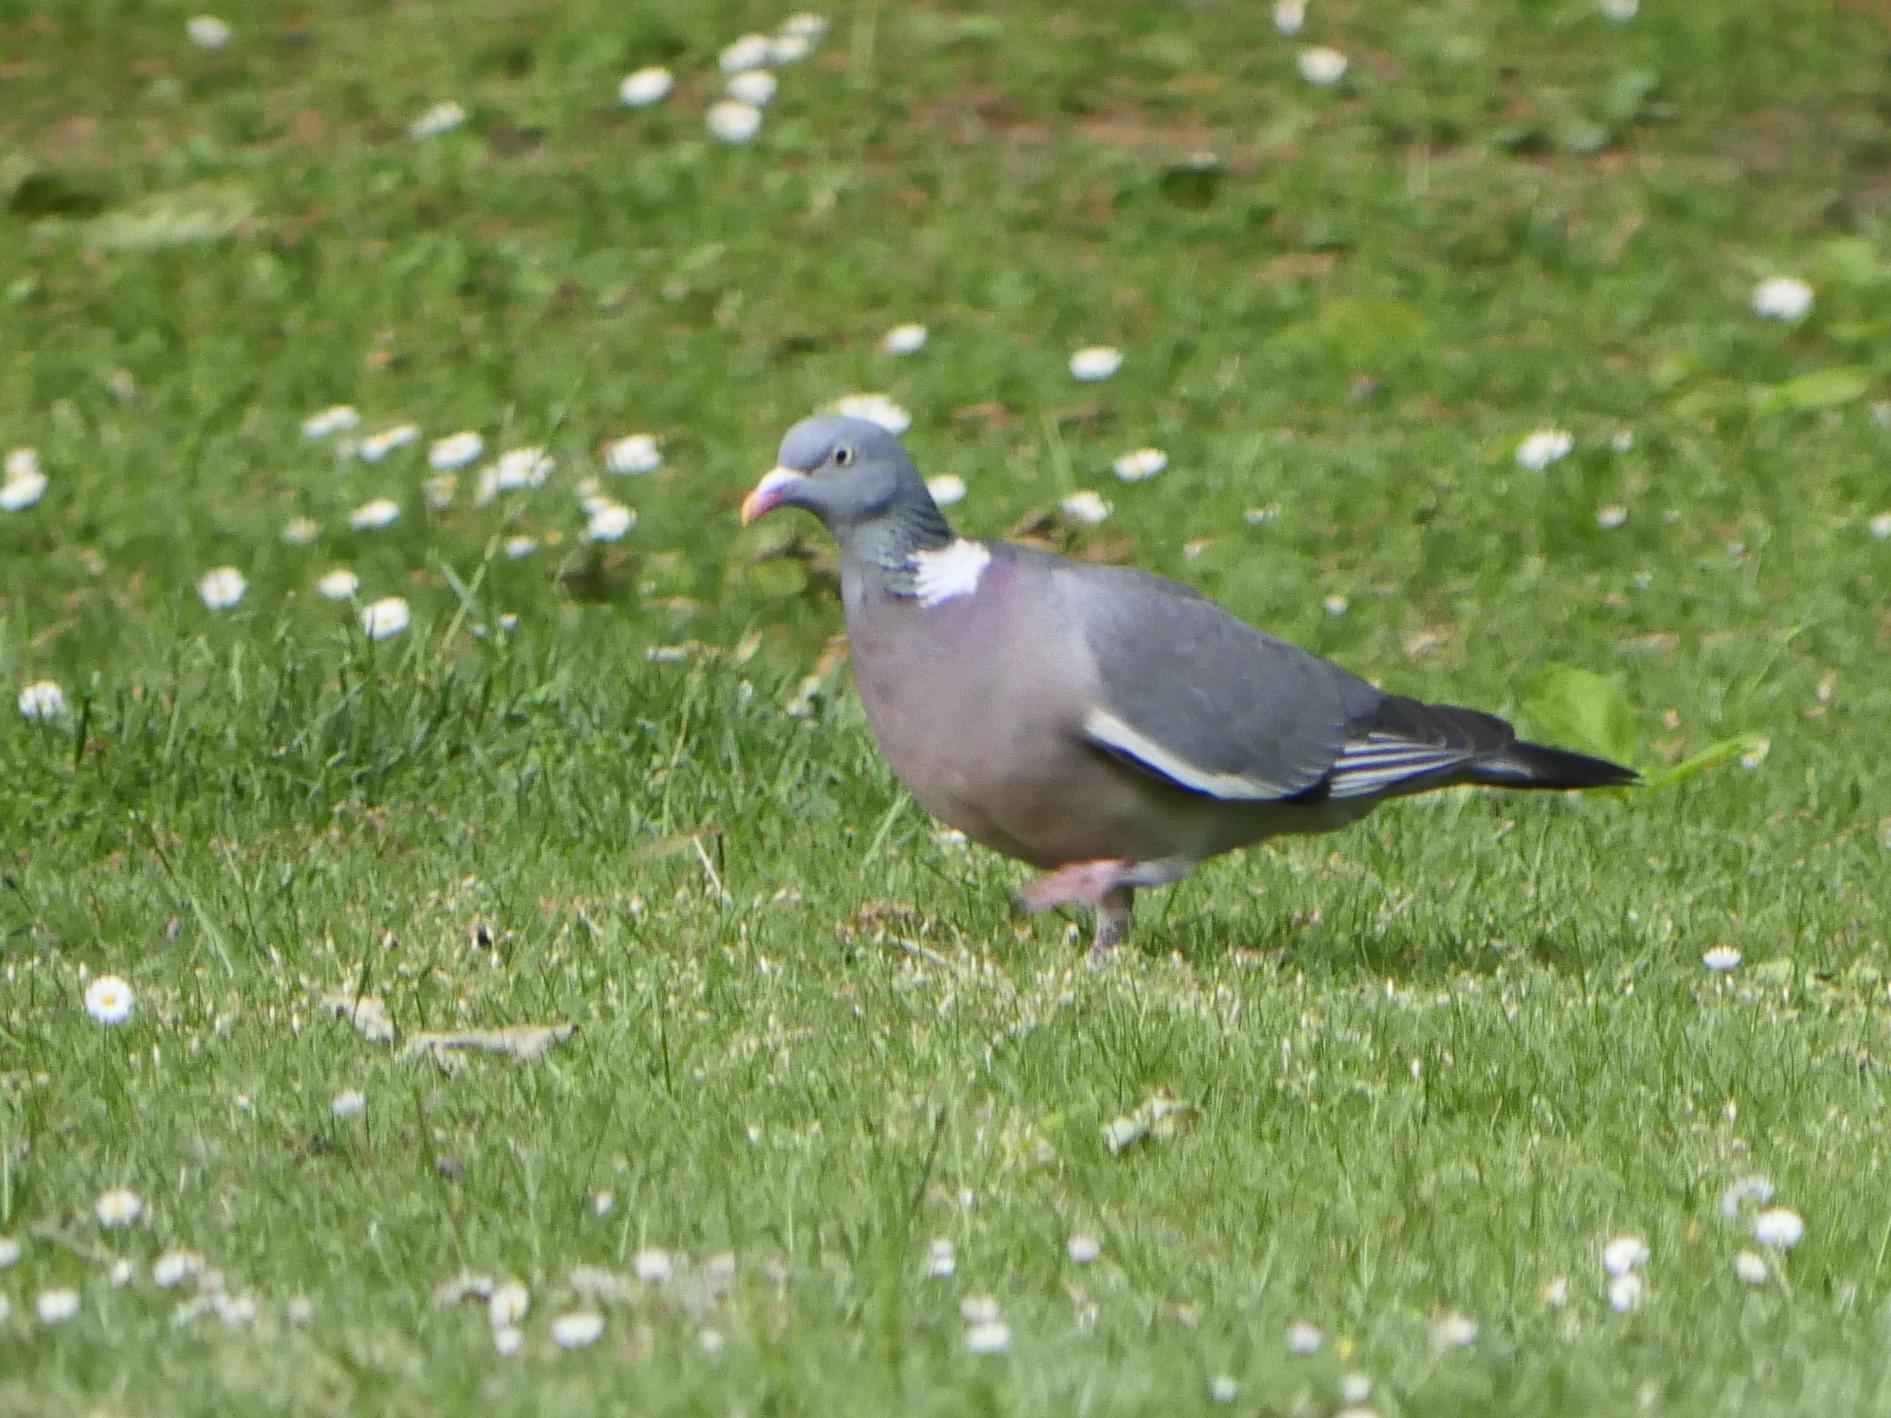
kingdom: Animalia
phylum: Chordata
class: Aves
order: Columbiformes
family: Columbidae
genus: Columba
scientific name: Columba palumbus
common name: Common wood pigeon
